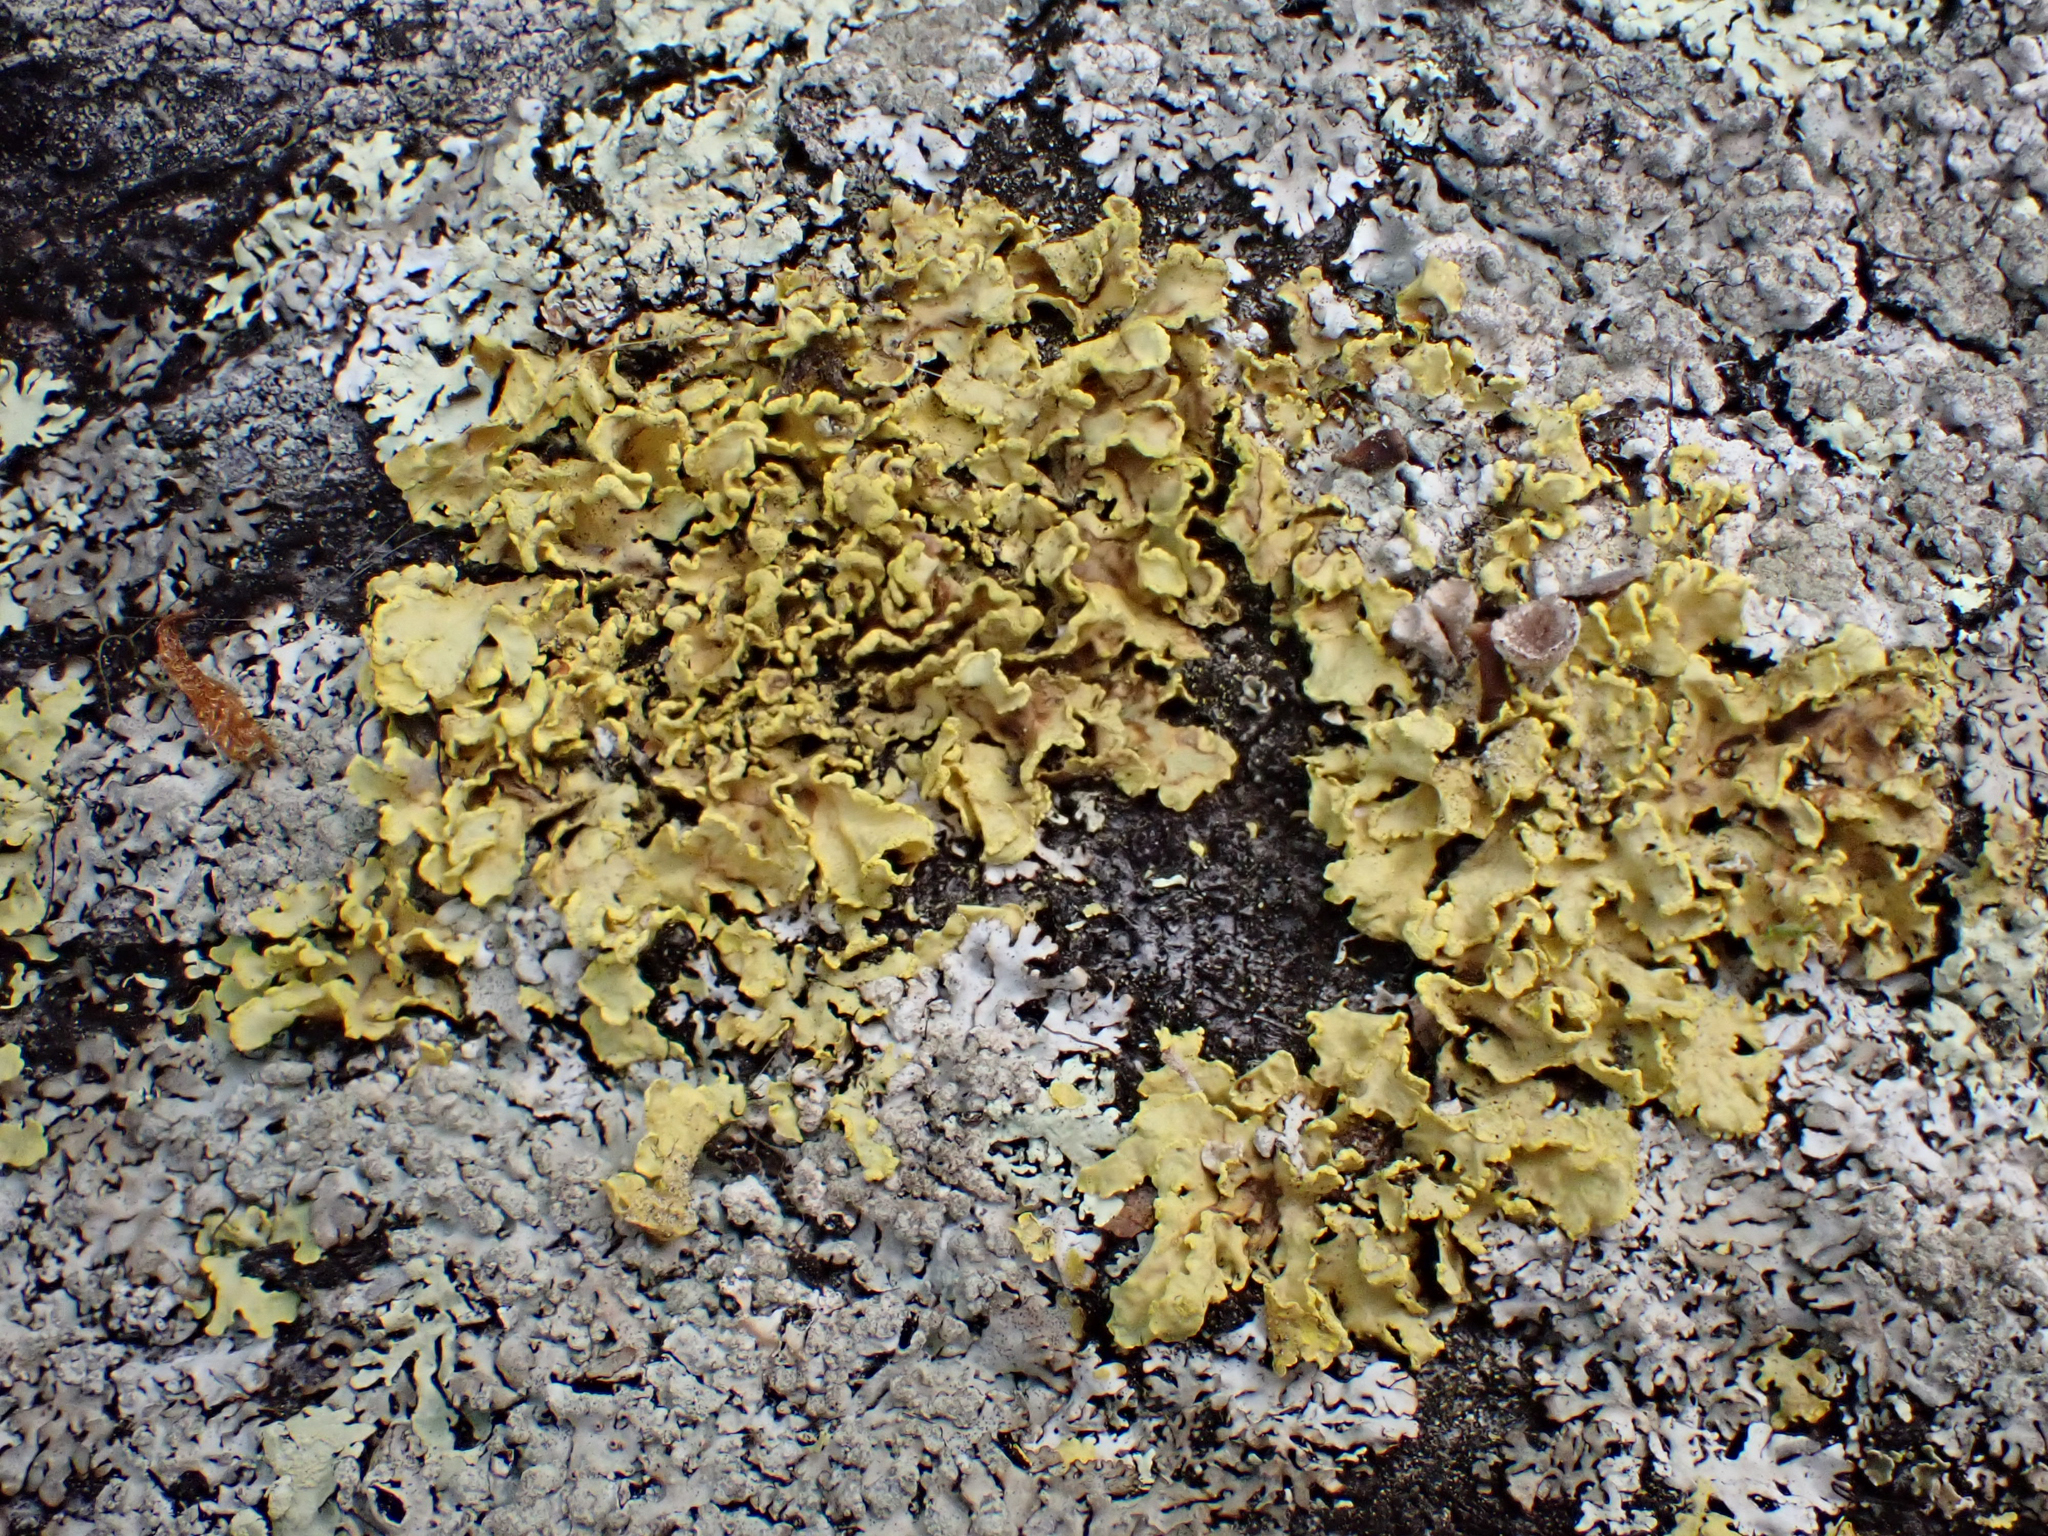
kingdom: Fungi
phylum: Ascomycota
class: Lecanoromycetes
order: Lecanorales
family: Parmeliaceae
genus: Vulpicida
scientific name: Vulpicida pinastri
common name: Powdered sunshine lichen
